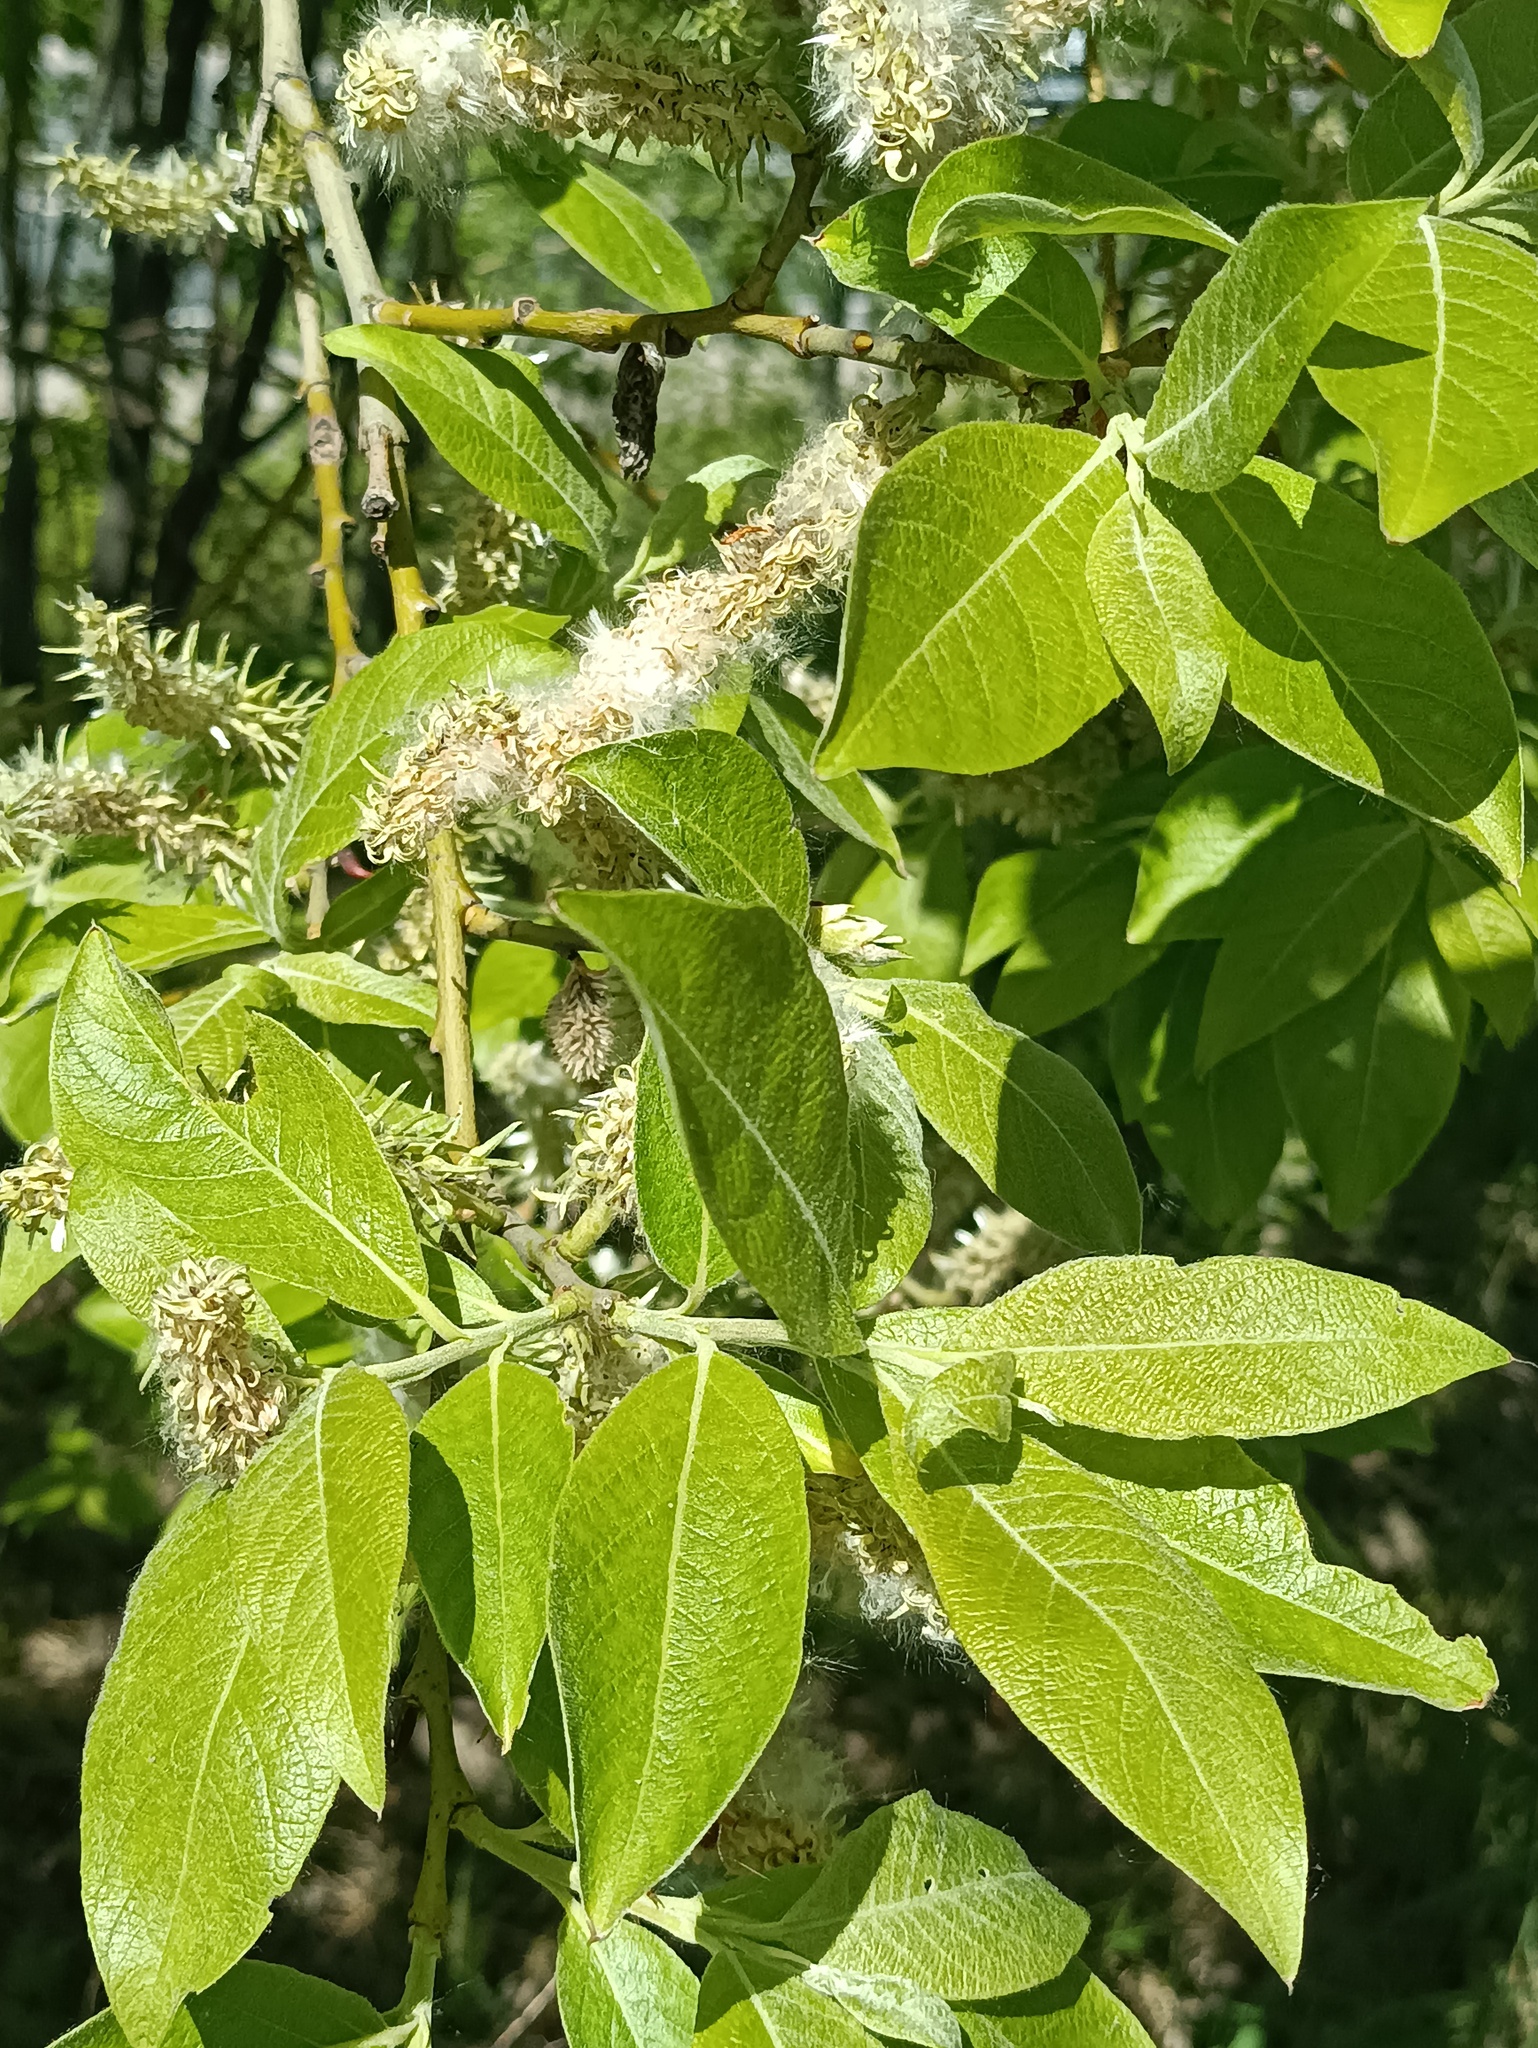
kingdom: Plantae
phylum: Tracheophyta
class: Magnoliopsida
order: Malpighiales
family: Salicaceae
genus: Salix
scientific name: Salix caprea
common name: Goat willow
